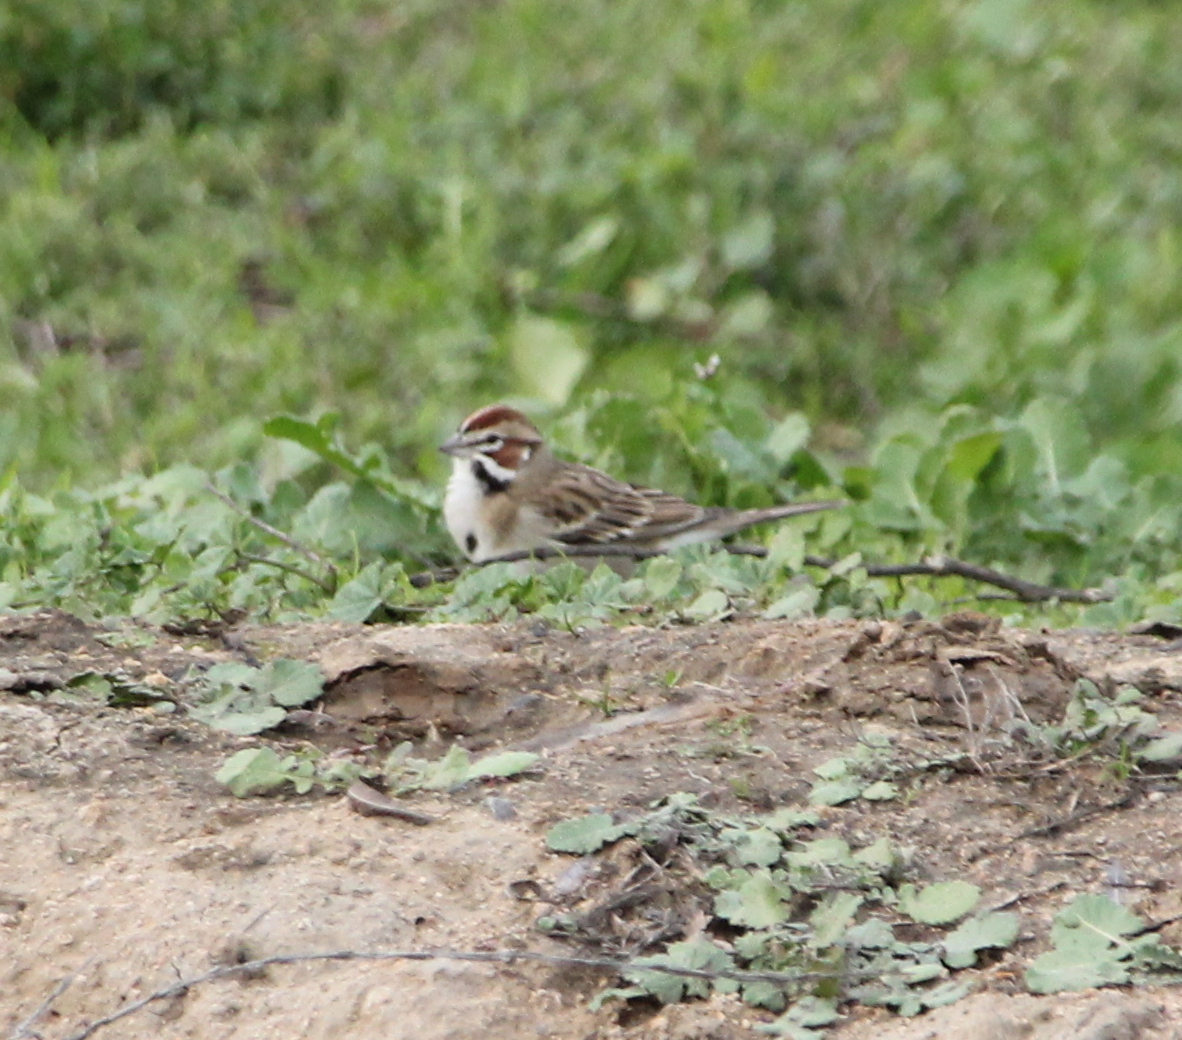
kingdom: Animalia
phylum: Chordata
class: Aves
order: Passeriformes
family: Passerellidae
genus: Chondestes
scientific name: Chondestes grammacus
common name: Lark sparrow
